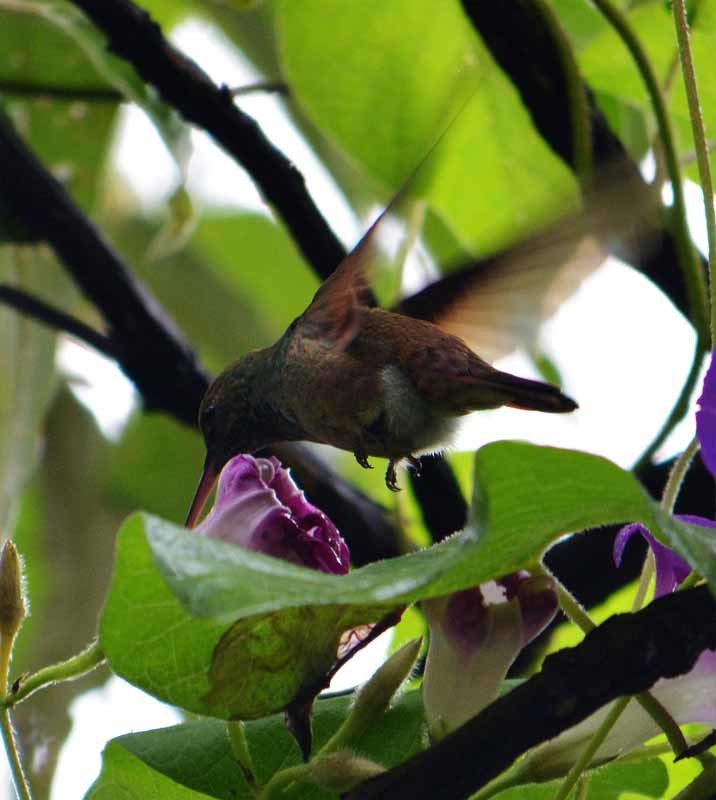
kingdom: Animalia
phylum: Chordata
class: Aves
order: Apodiformes
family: Trochilidae
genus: Saucerottia
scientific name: Saucerottia beryllina
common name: Berylline hummingbird
